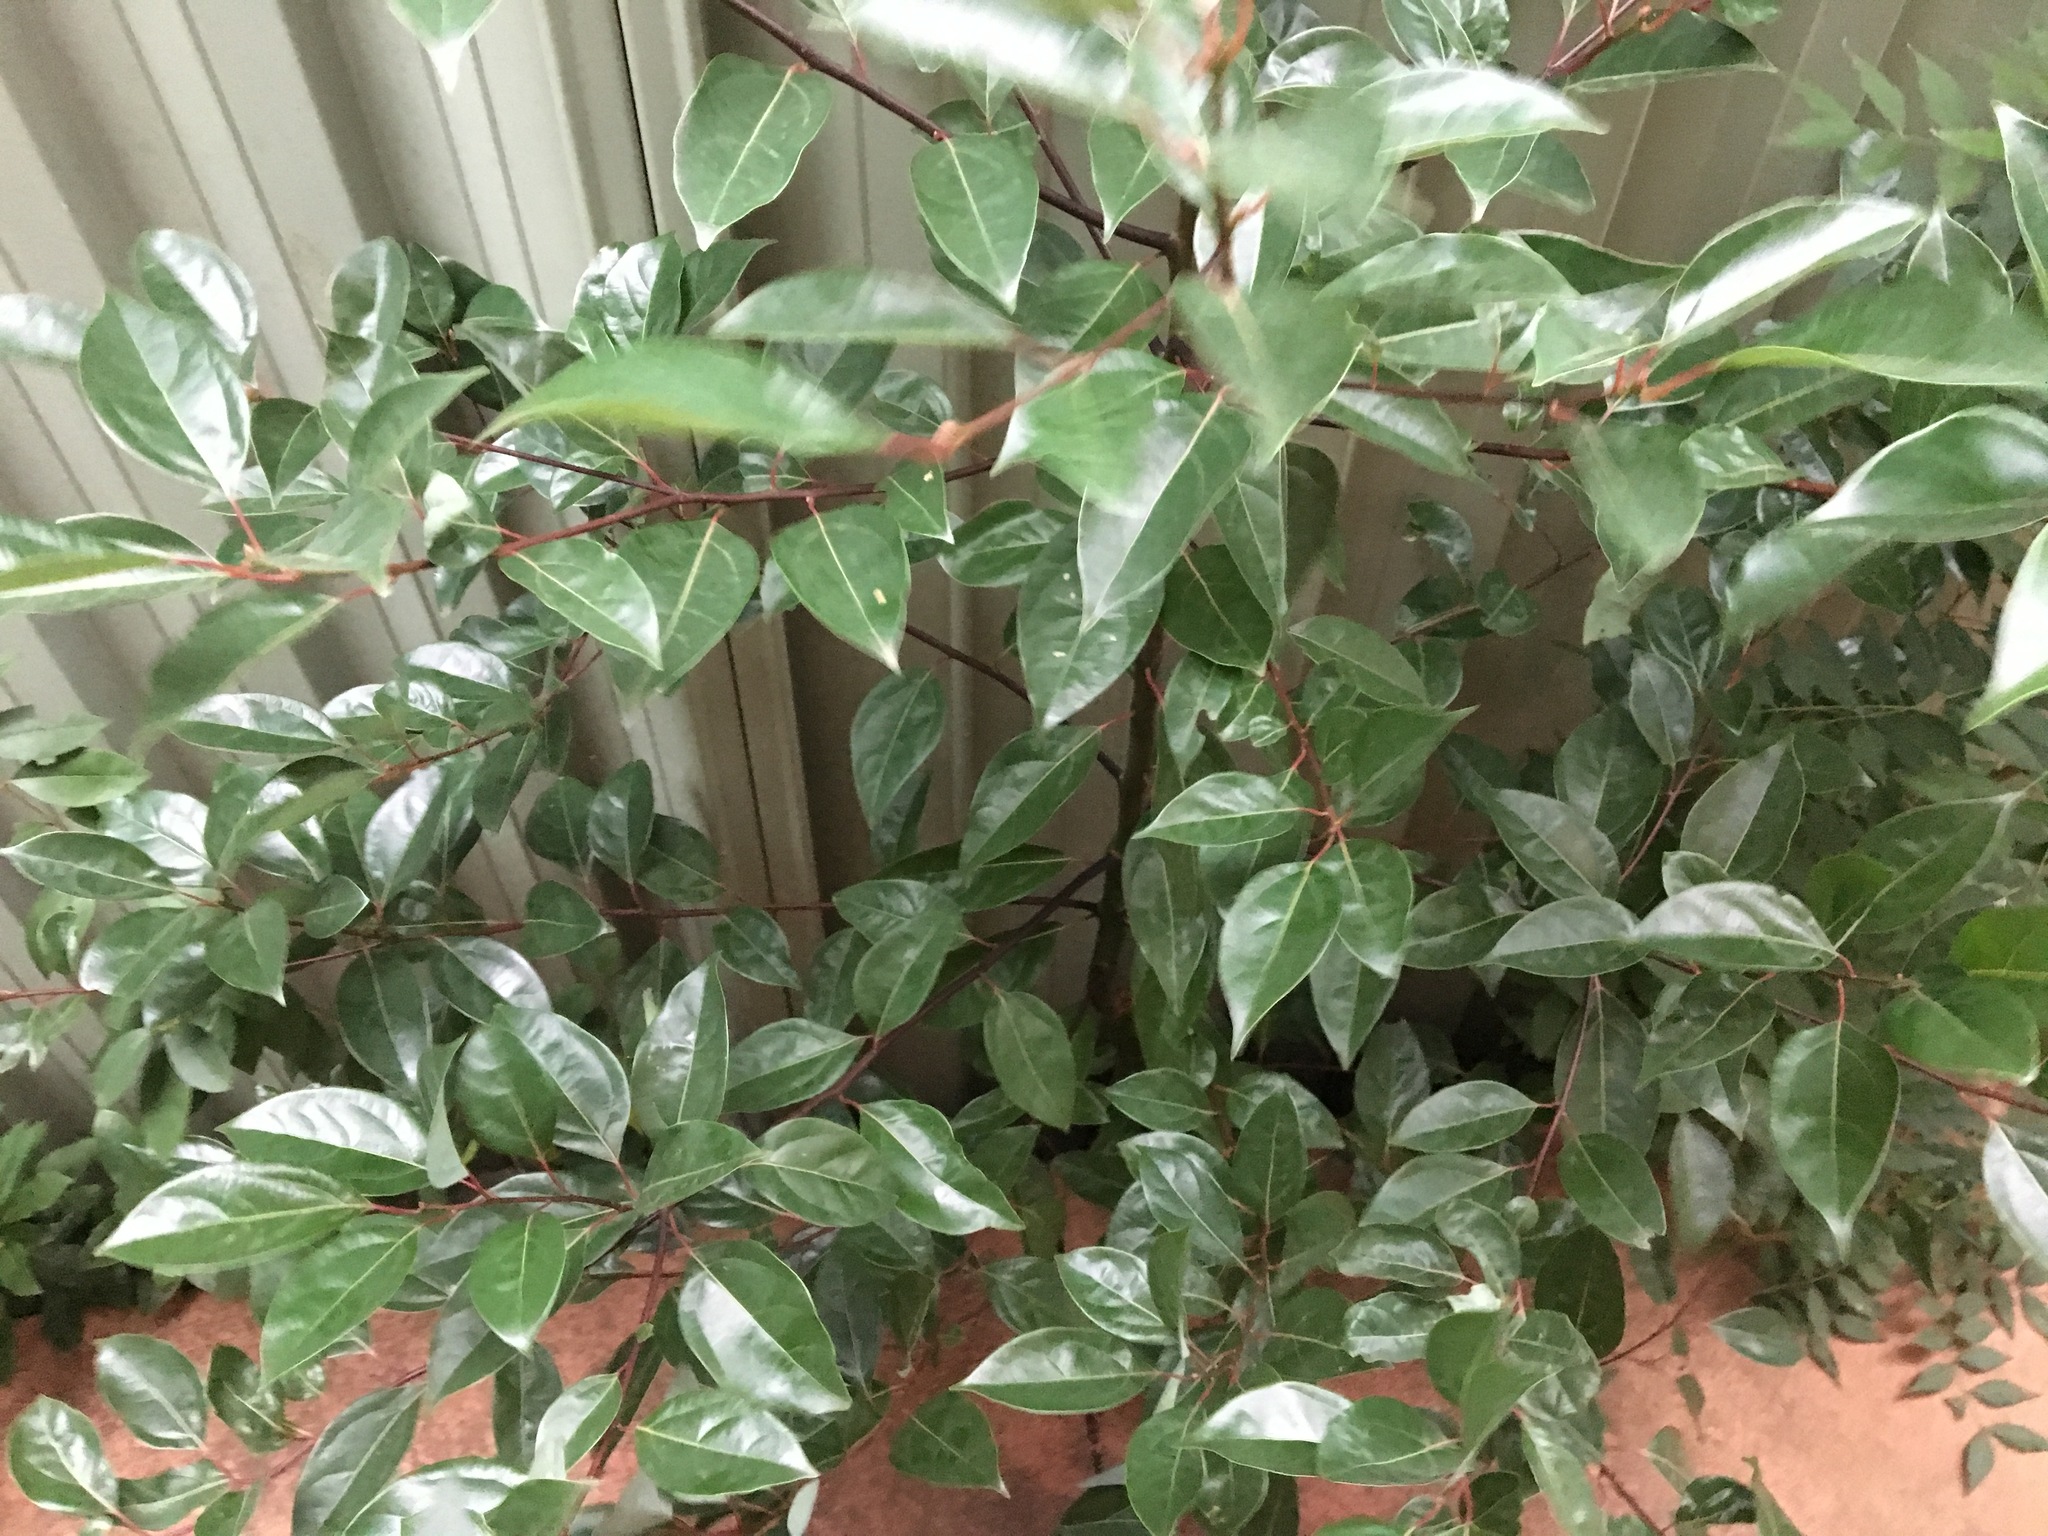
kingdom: Plantae
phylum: Tracheophyta
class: Magnoliopsida
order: Laurales
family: Lauraceae
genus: Cinnamomum
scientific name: Cinnamomum camphora
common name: Camphortree
